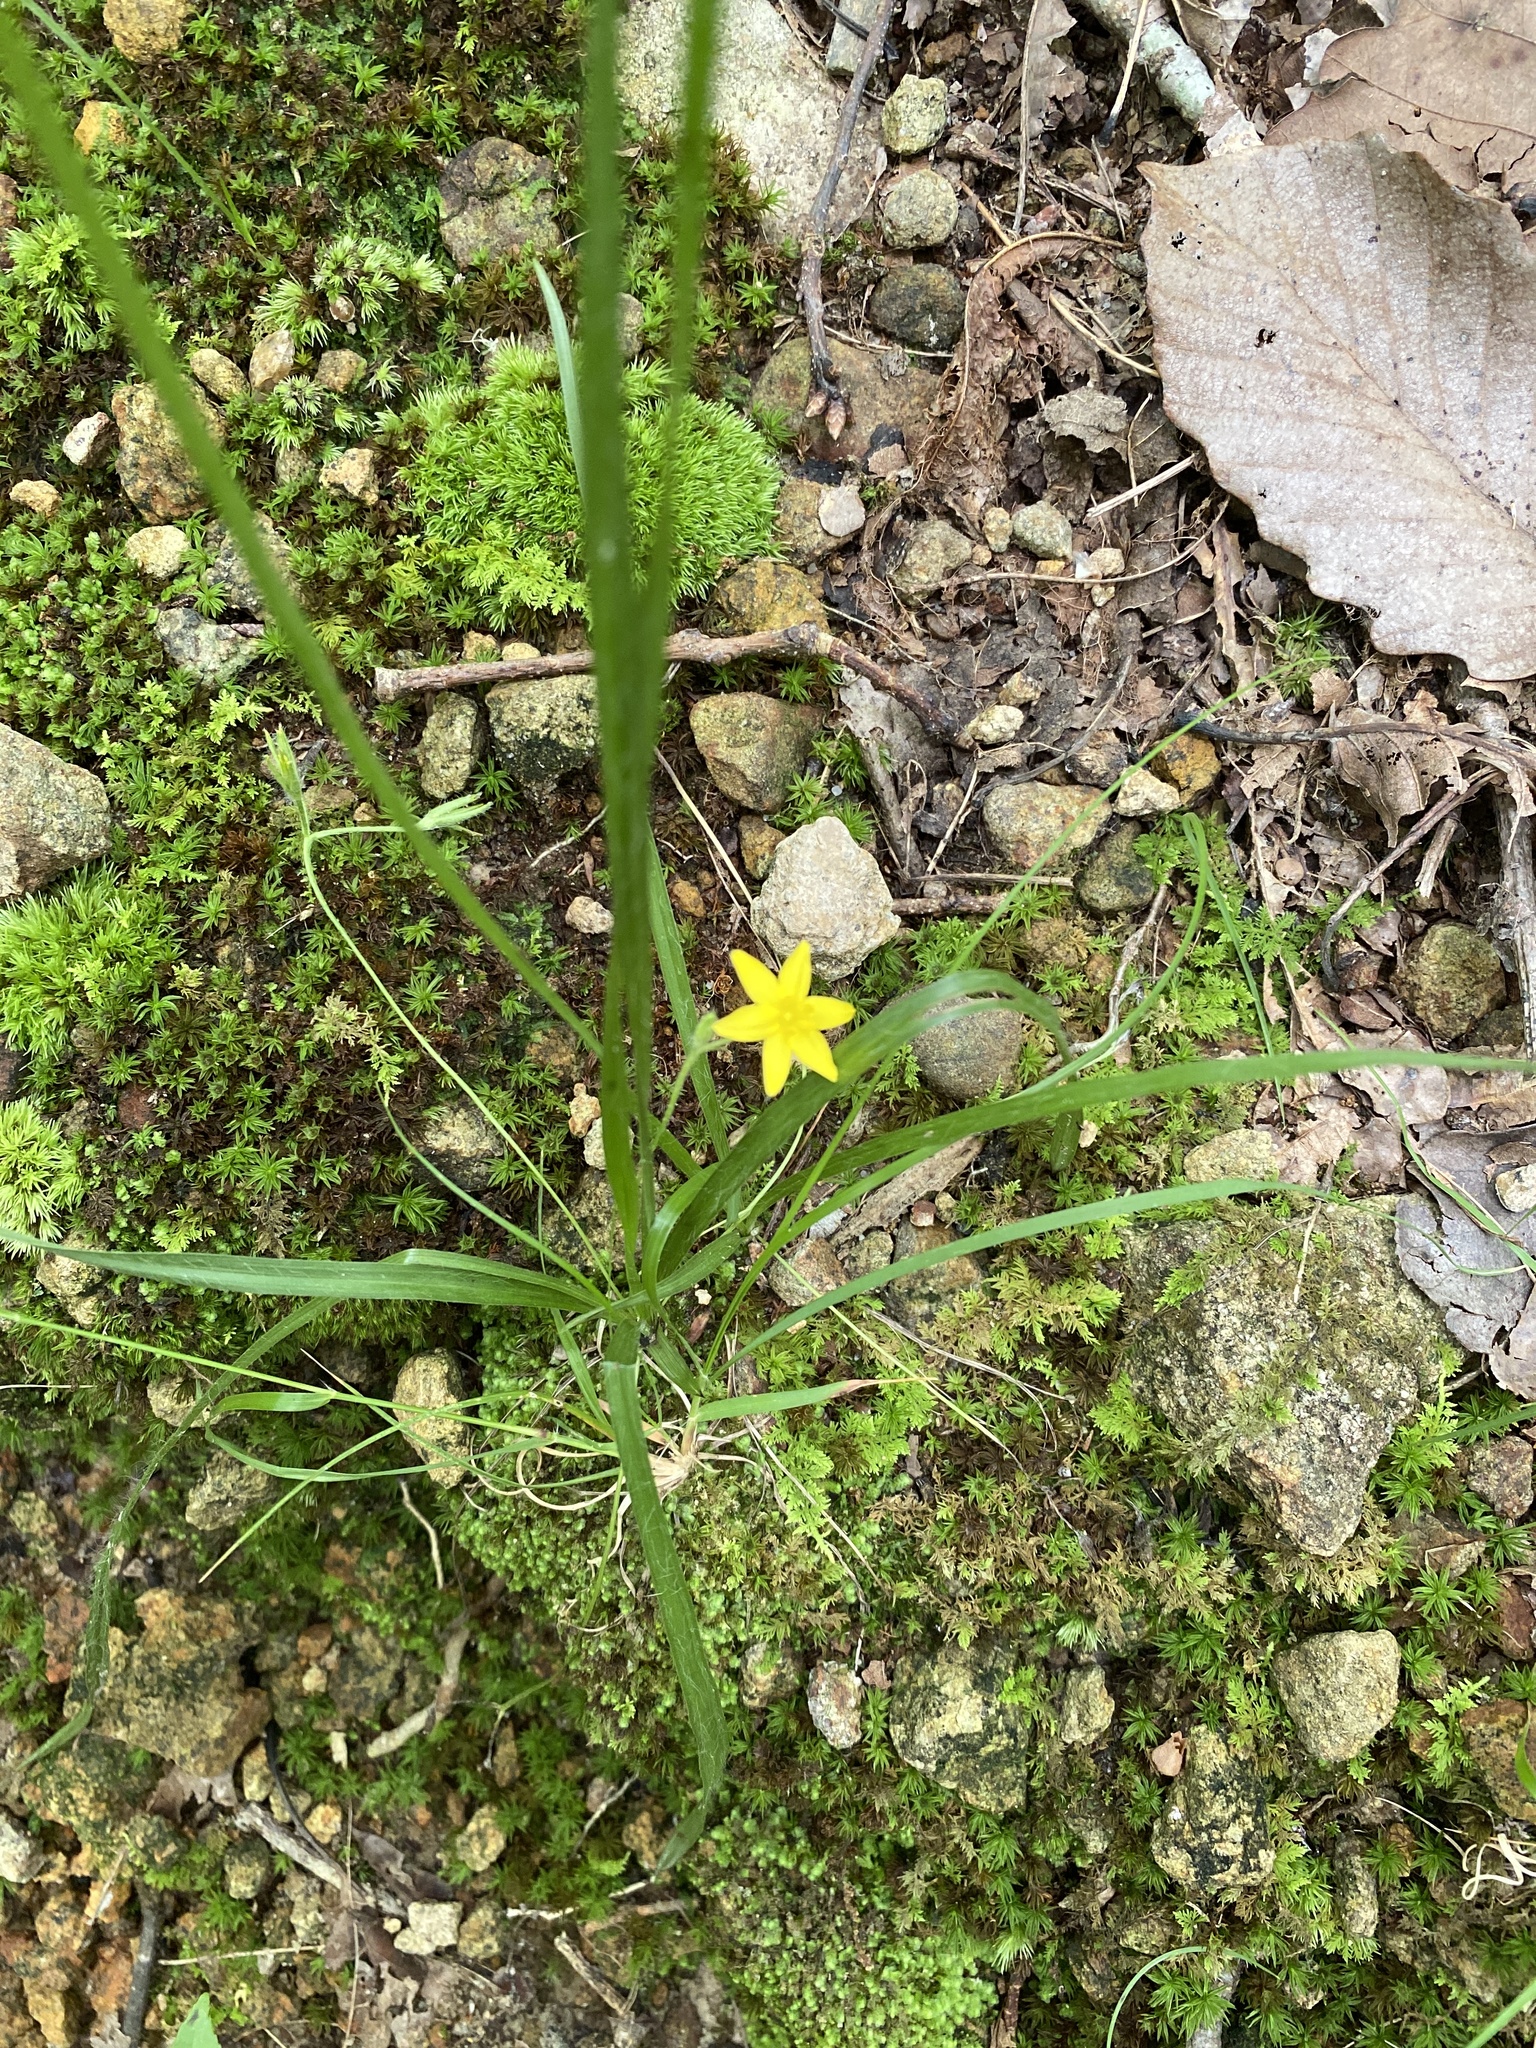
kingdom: Plantae
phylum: Tracheophyta
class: Liliopsida
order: Asparagales
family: Hypoxidaceae
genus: Hypoxis
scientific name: Hypoxis hirsuta
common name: Common goldstar
